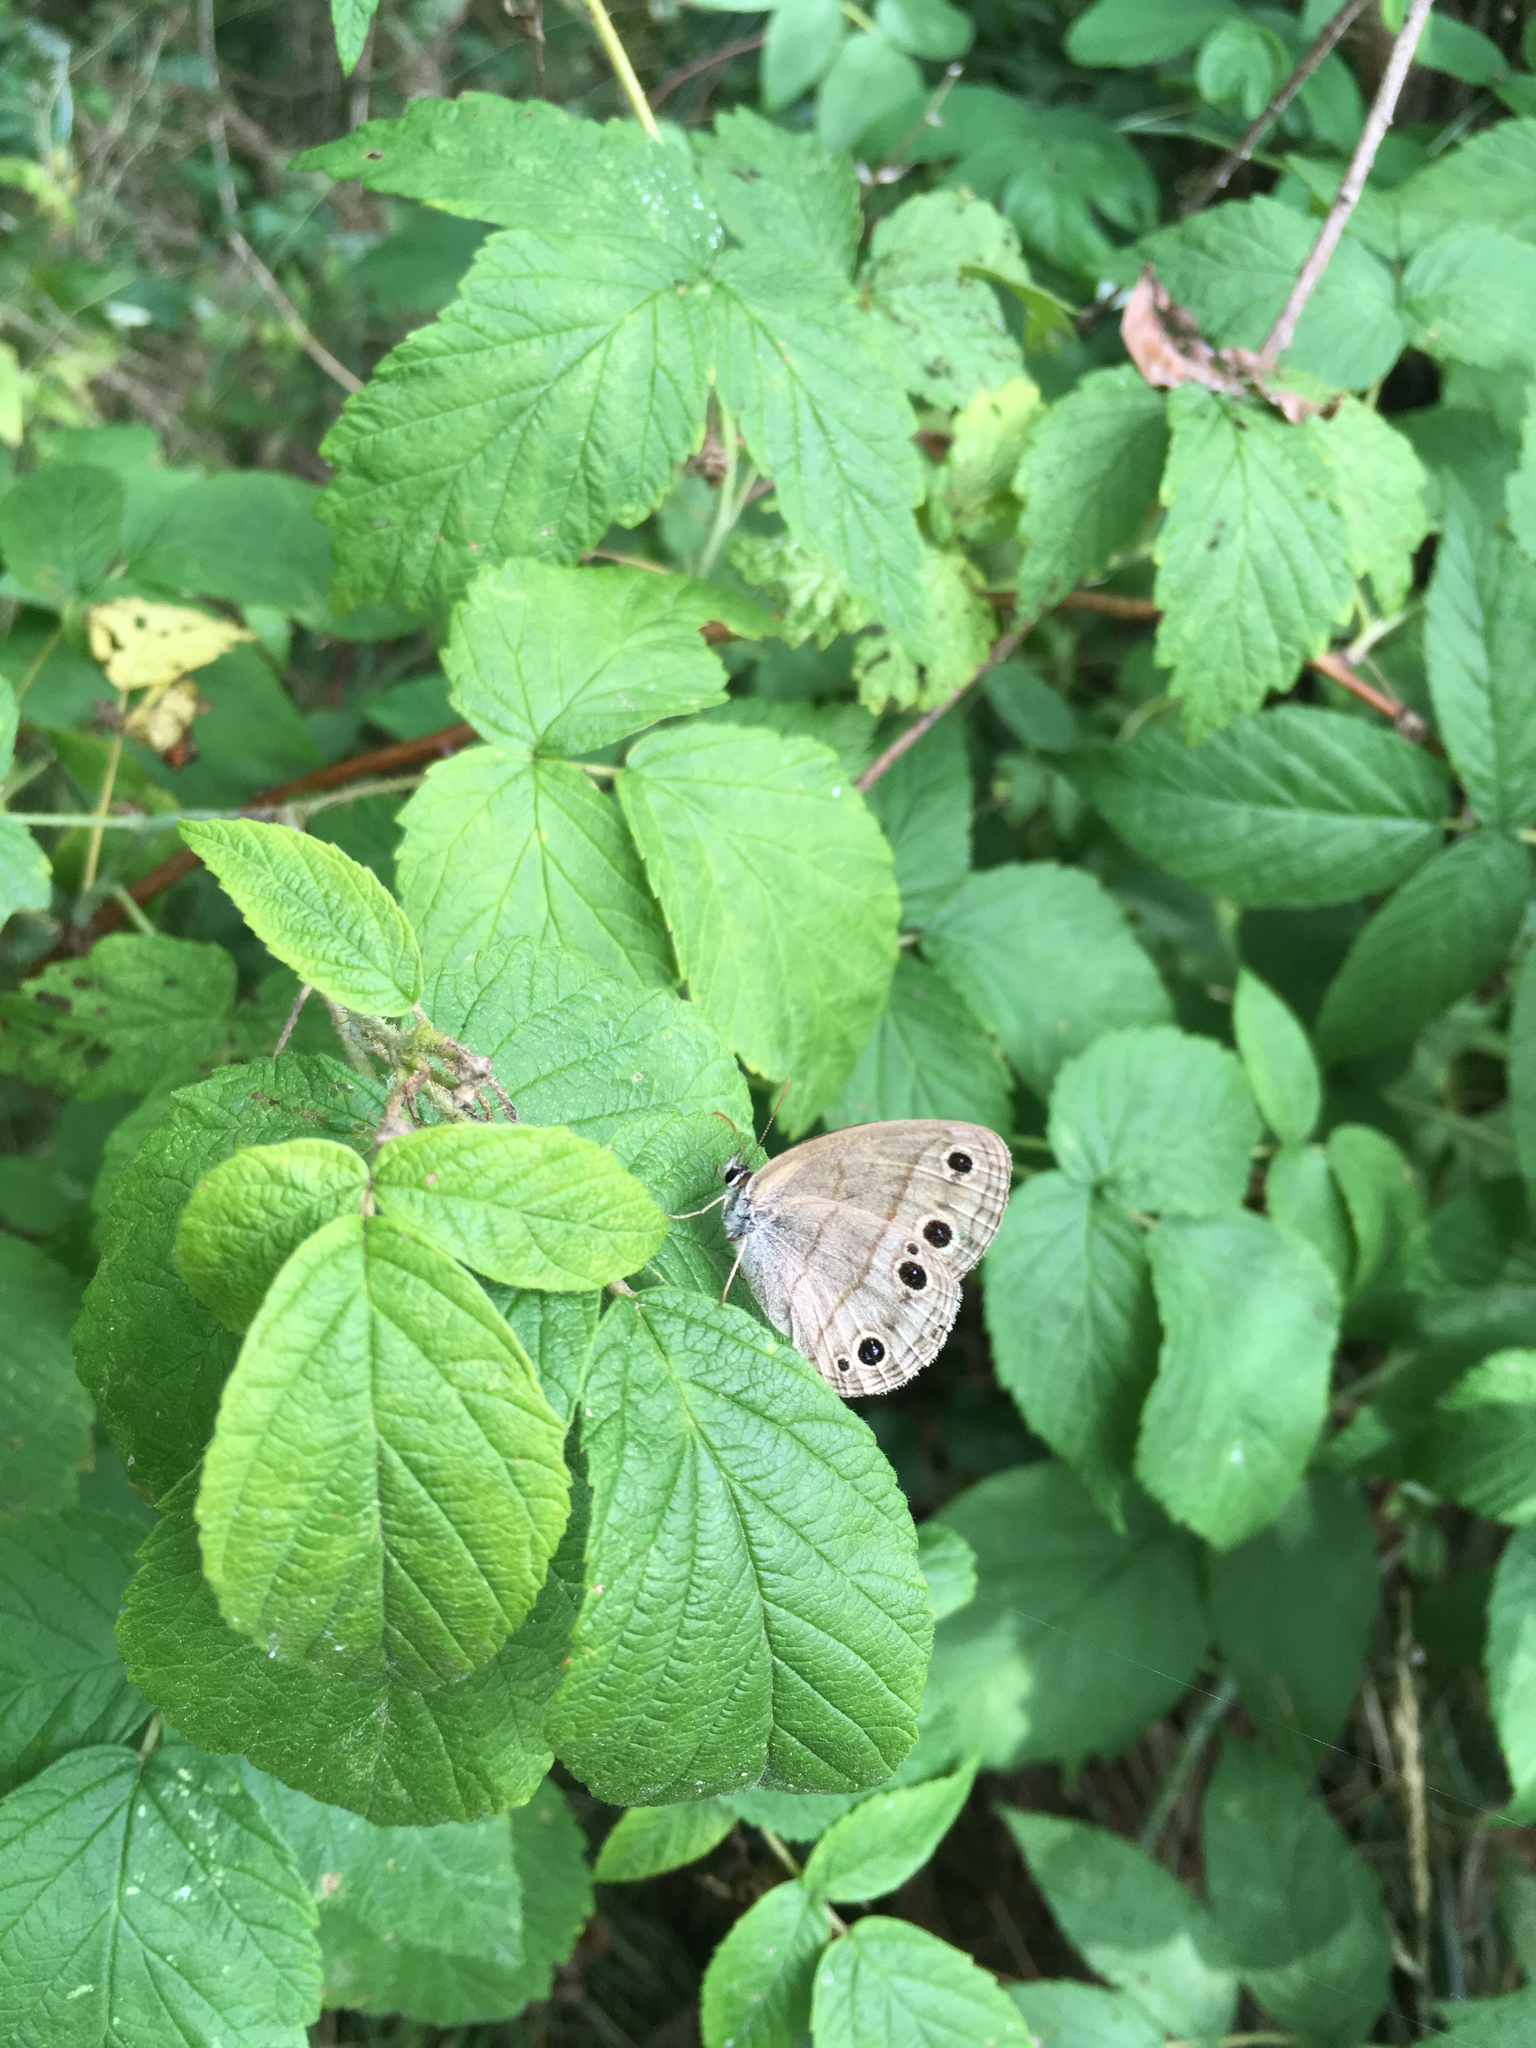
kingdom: Animalia
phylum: Arthropoda
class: Insecta
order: Lepidoptera
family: Nymphalidae
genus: Euptychia
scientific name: Euptychia cymela
